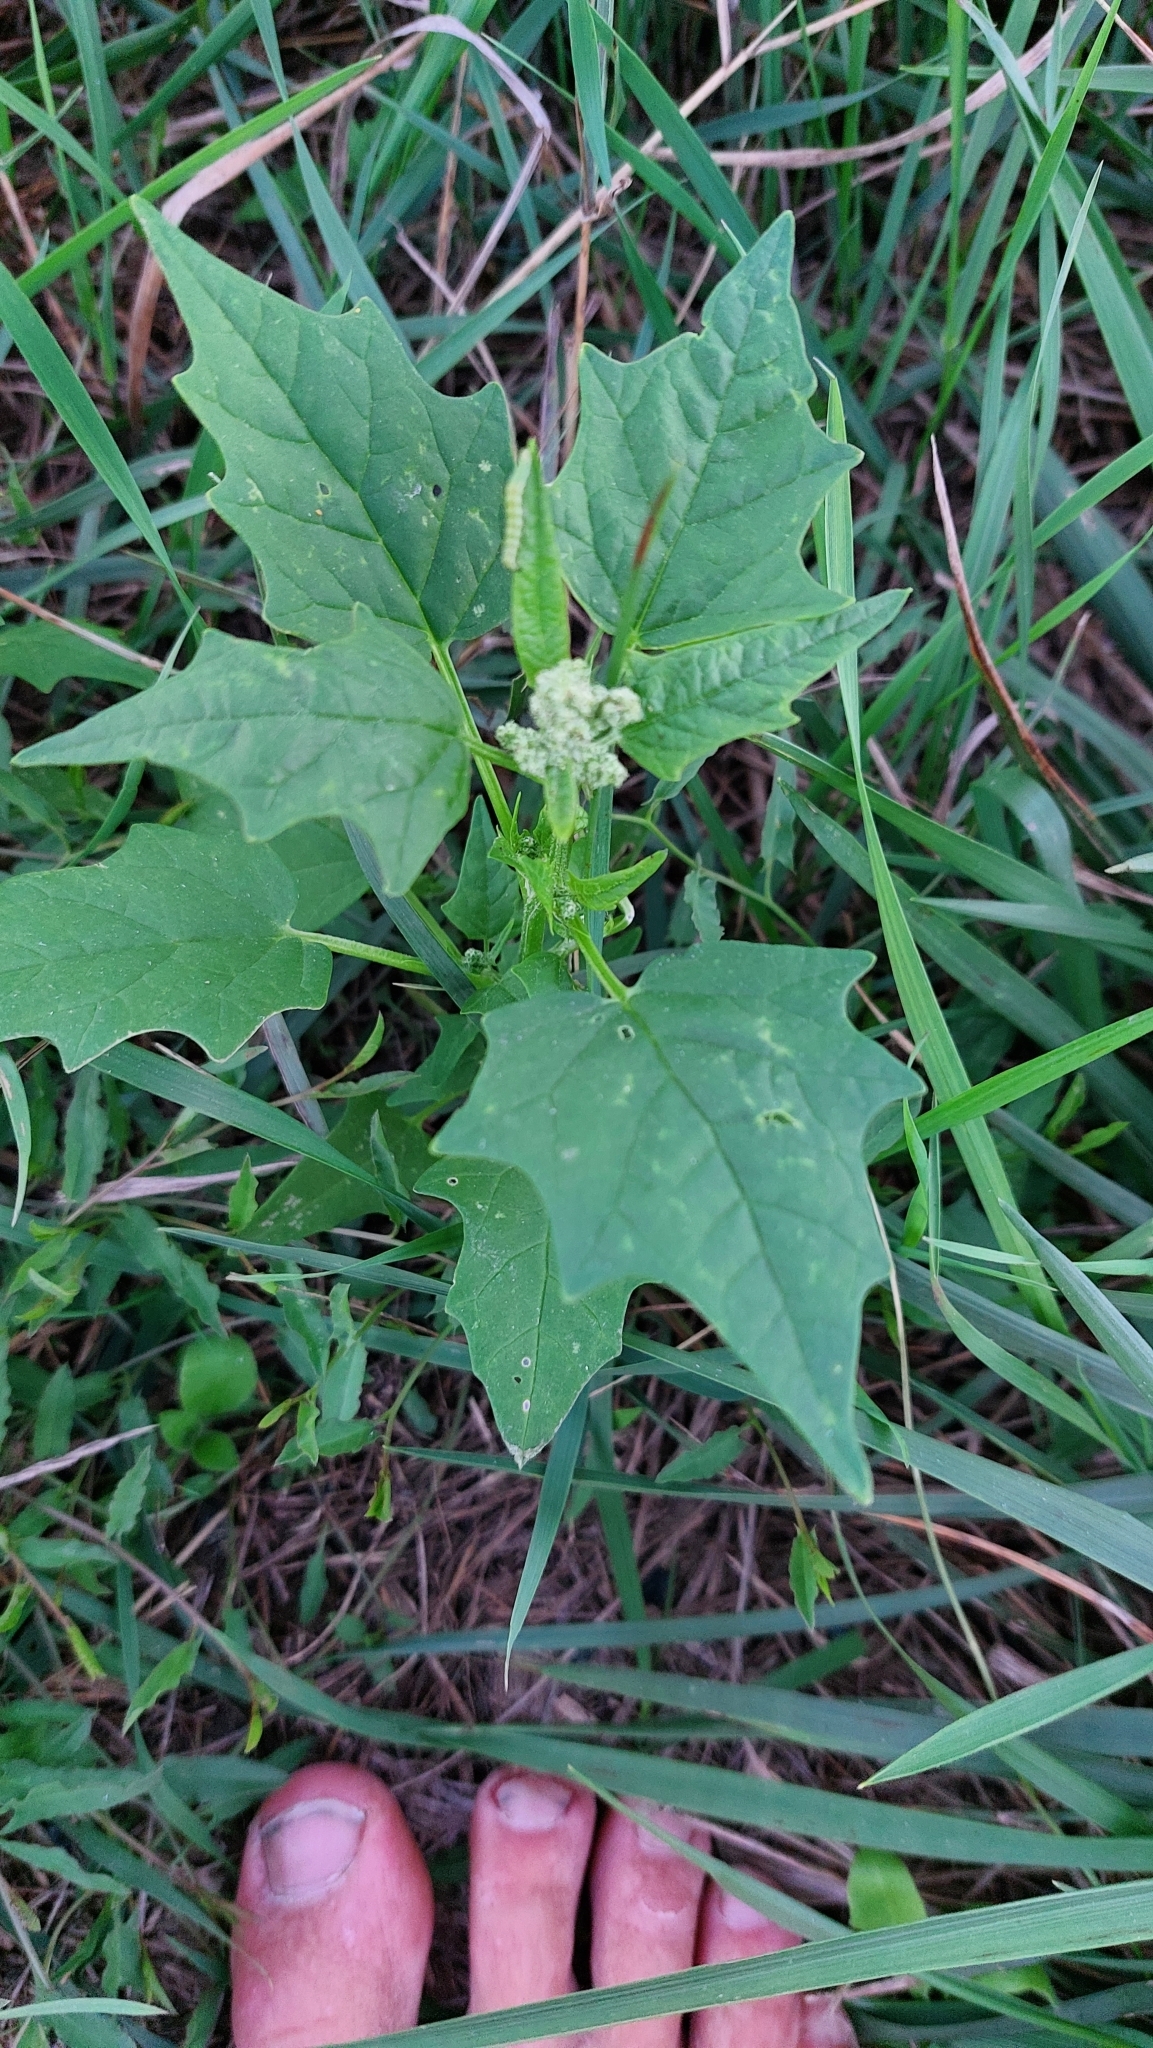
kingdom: Plantae
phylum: Tracheophyta
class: Magnoliopsida
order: Caryophyllales
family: Amaranthaceae
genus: Chenopodiastrum
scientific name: Chenopodiastrum hybridum
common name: Mapleleaf goosefoot
